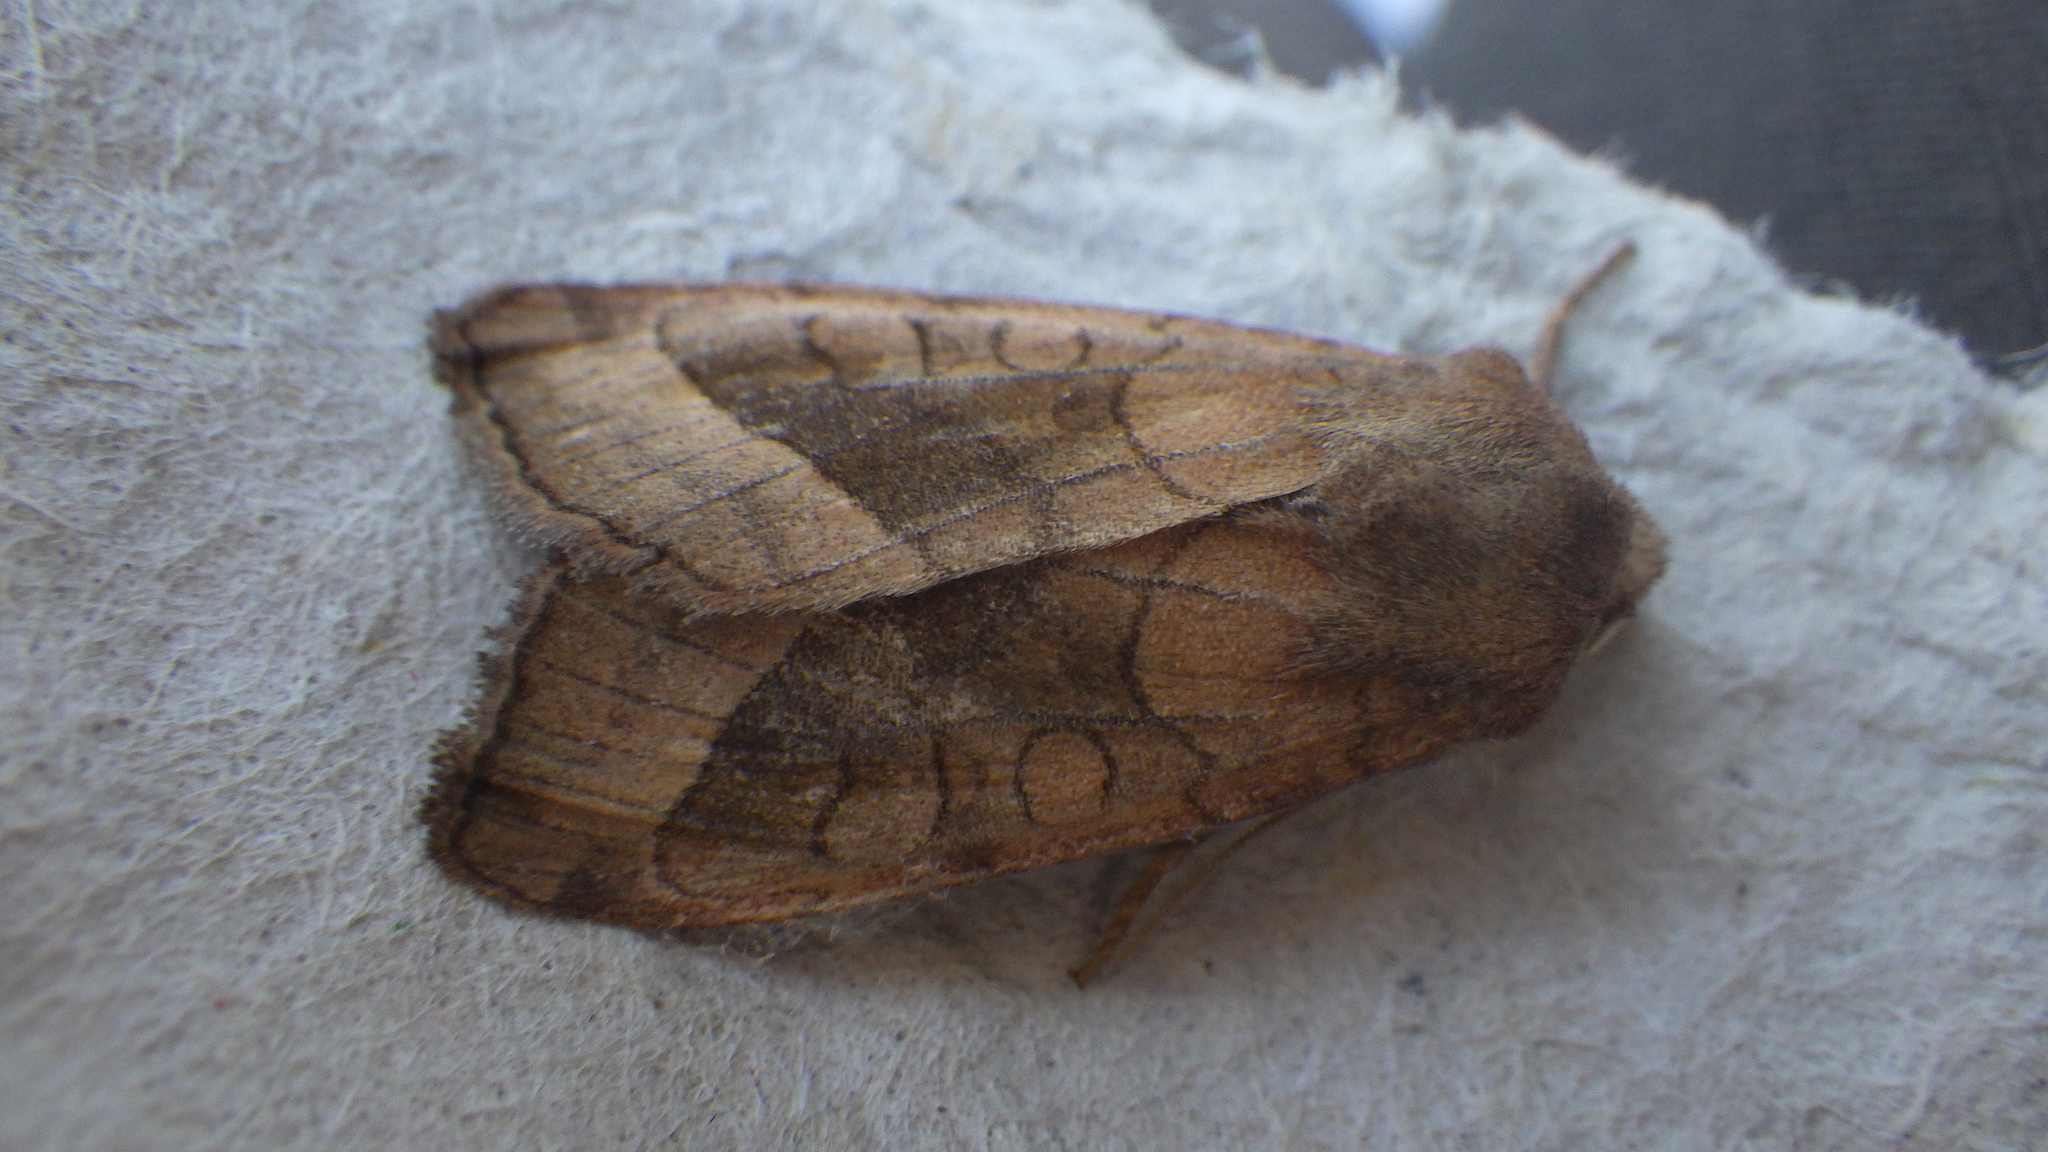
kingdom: Animalia
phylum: Arthropoda
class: Insecta
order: Lepidoptera
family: Noctuidae
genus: Hydraecia
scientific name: Hydraecia micacea
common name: Rosy rustic
